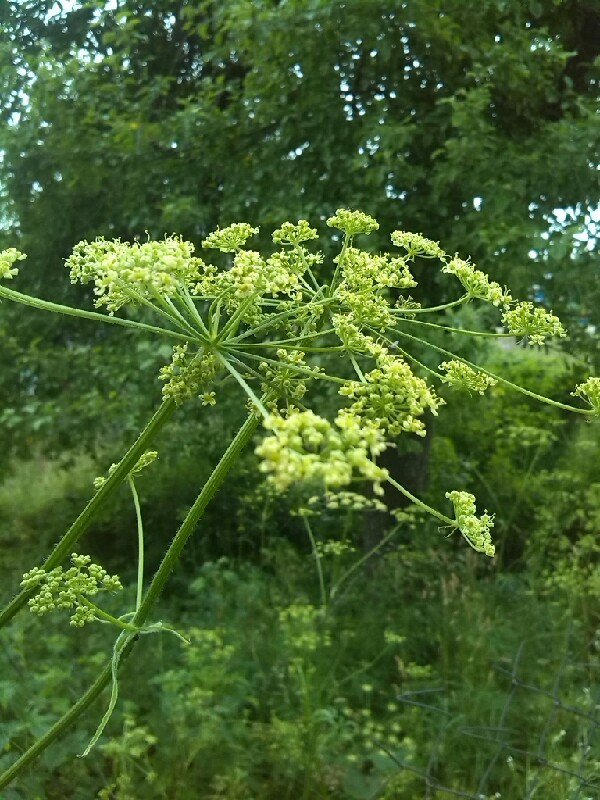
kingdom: Plantae
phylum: Tracheophyta
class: Magnoliopsida
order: Apiales
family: Apiaceae
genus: Heracleum
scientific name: Heracleum sphondylium
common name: Hogweed
